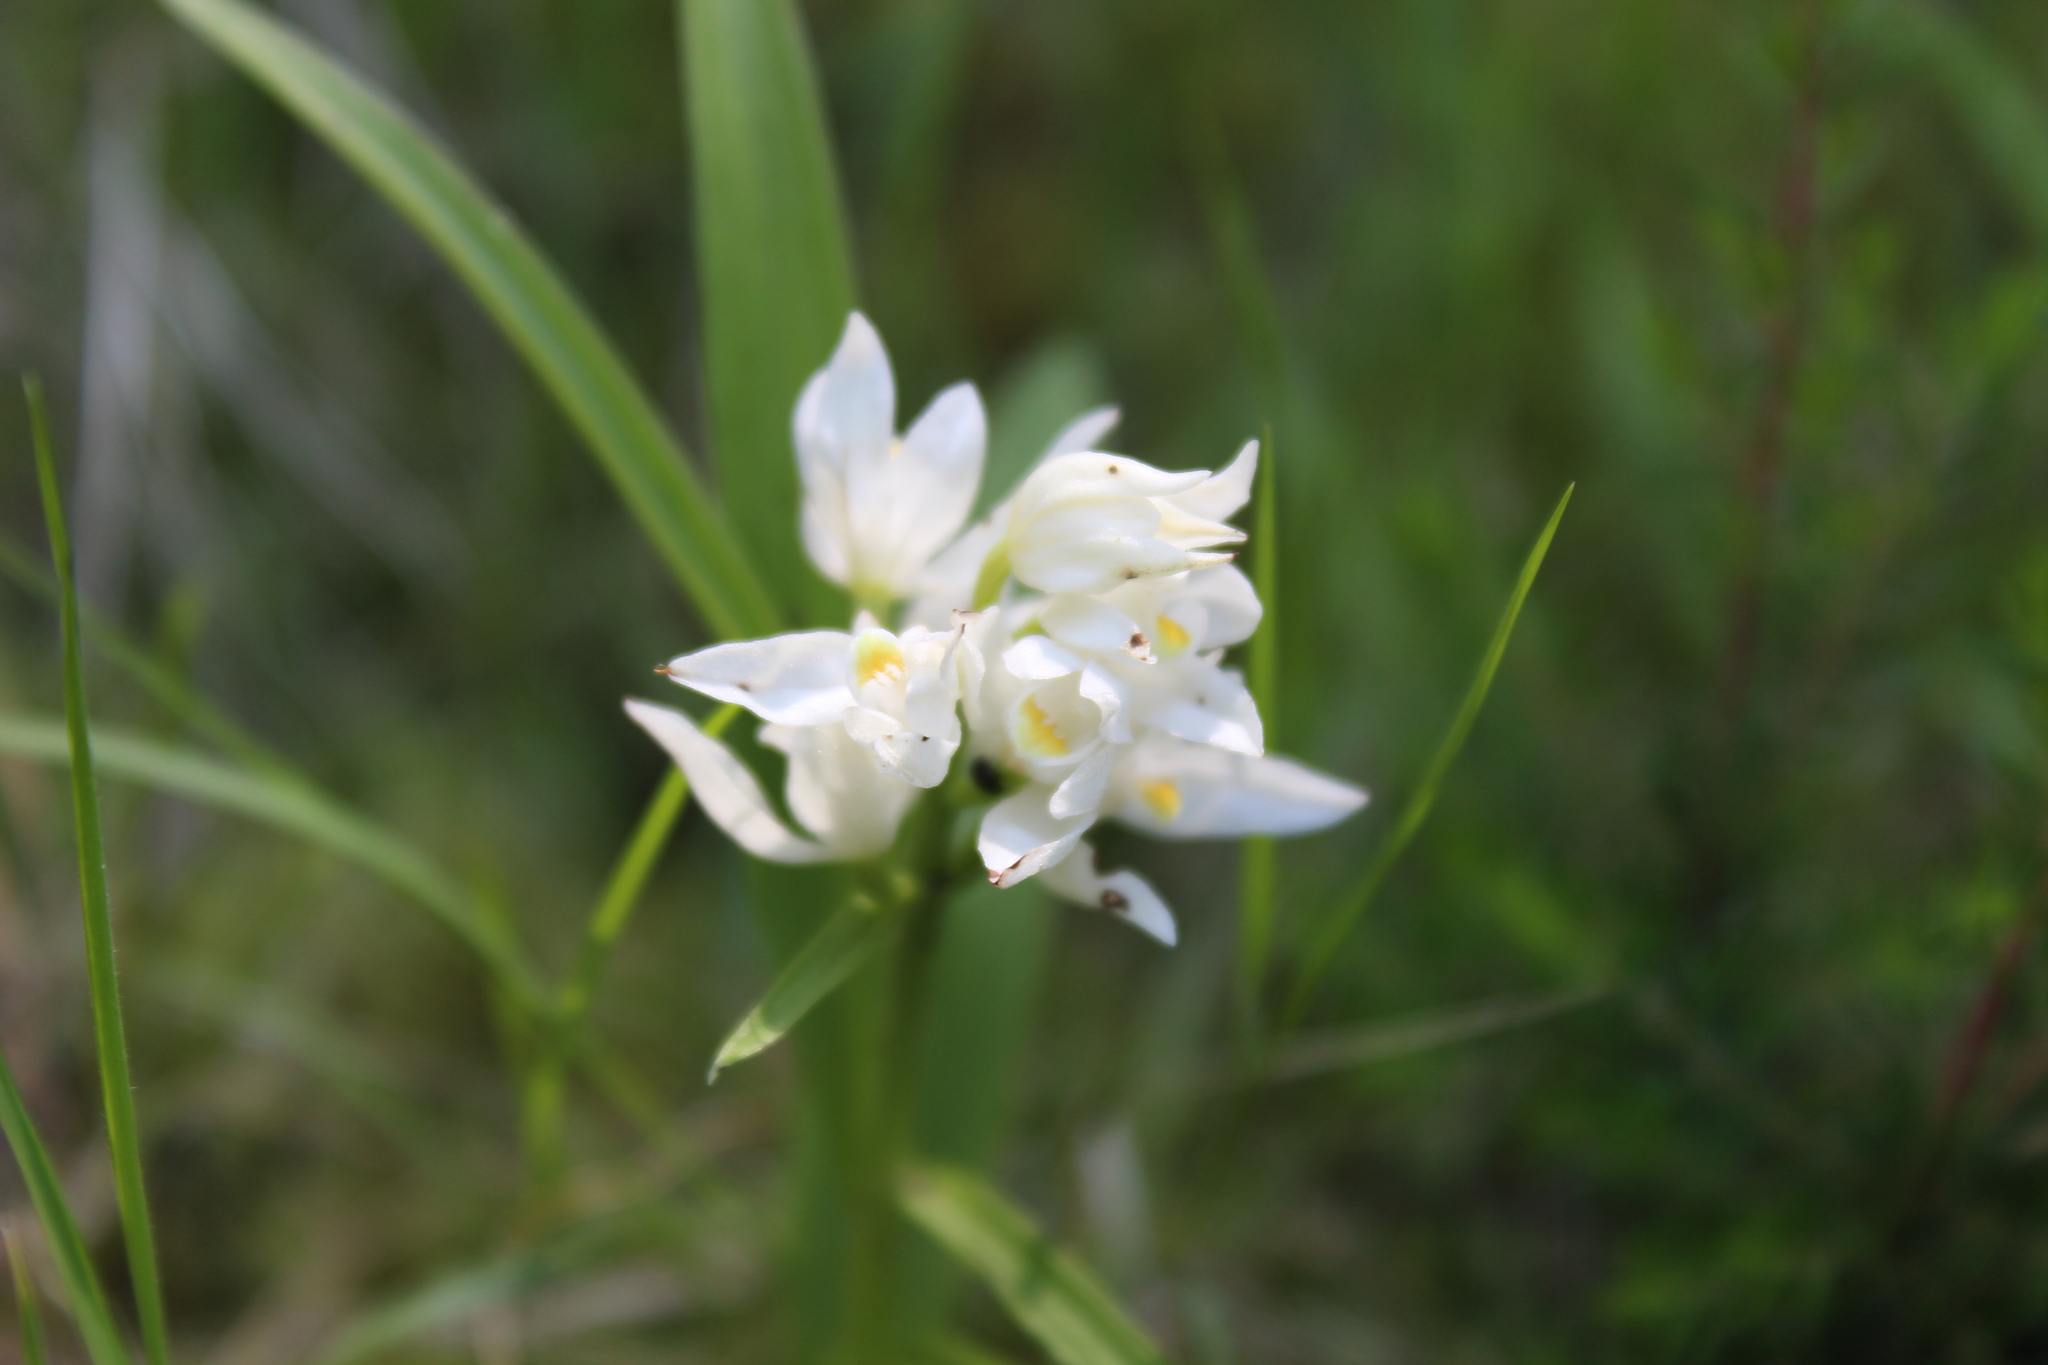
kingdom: Plantae
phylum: Tracheophyta
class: Liliopsida
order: Asparagales
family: Orchidaceae
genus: Cephalanthera
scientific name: Cephalanthera longifolia
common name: Narrow-leaved helleborine
